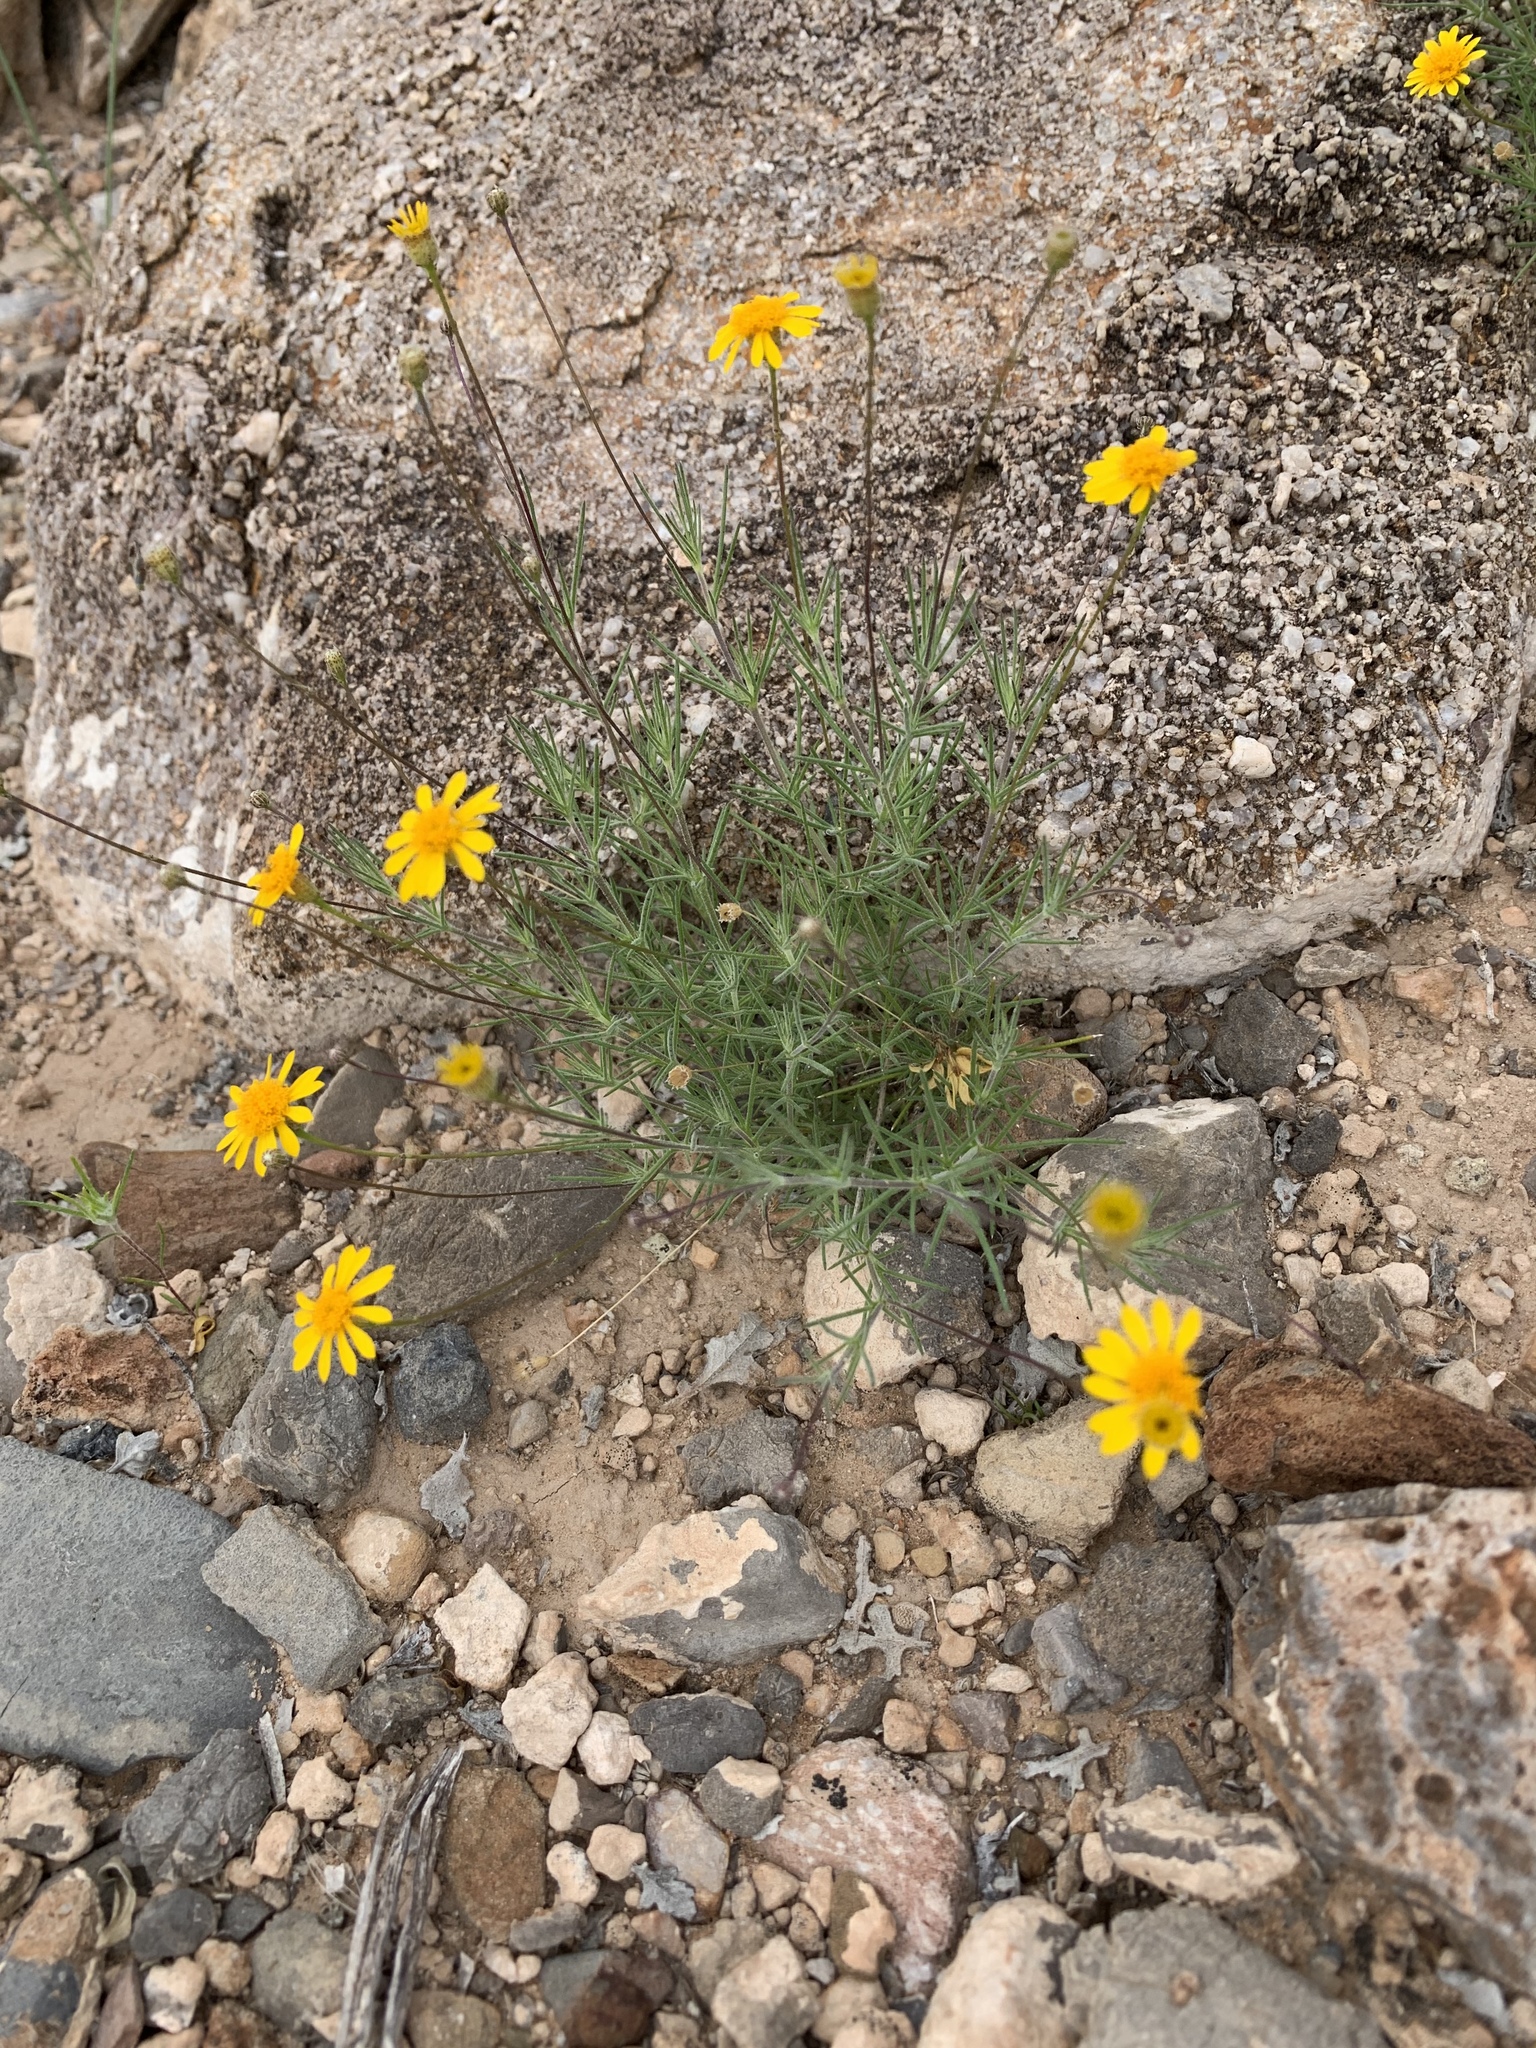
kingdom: Plantae
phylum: Tracheophyta
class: Magnoliopsida
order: Asterales
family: Asteraceae
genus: Thymophylla
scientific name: Thymophylla pentachaeta
